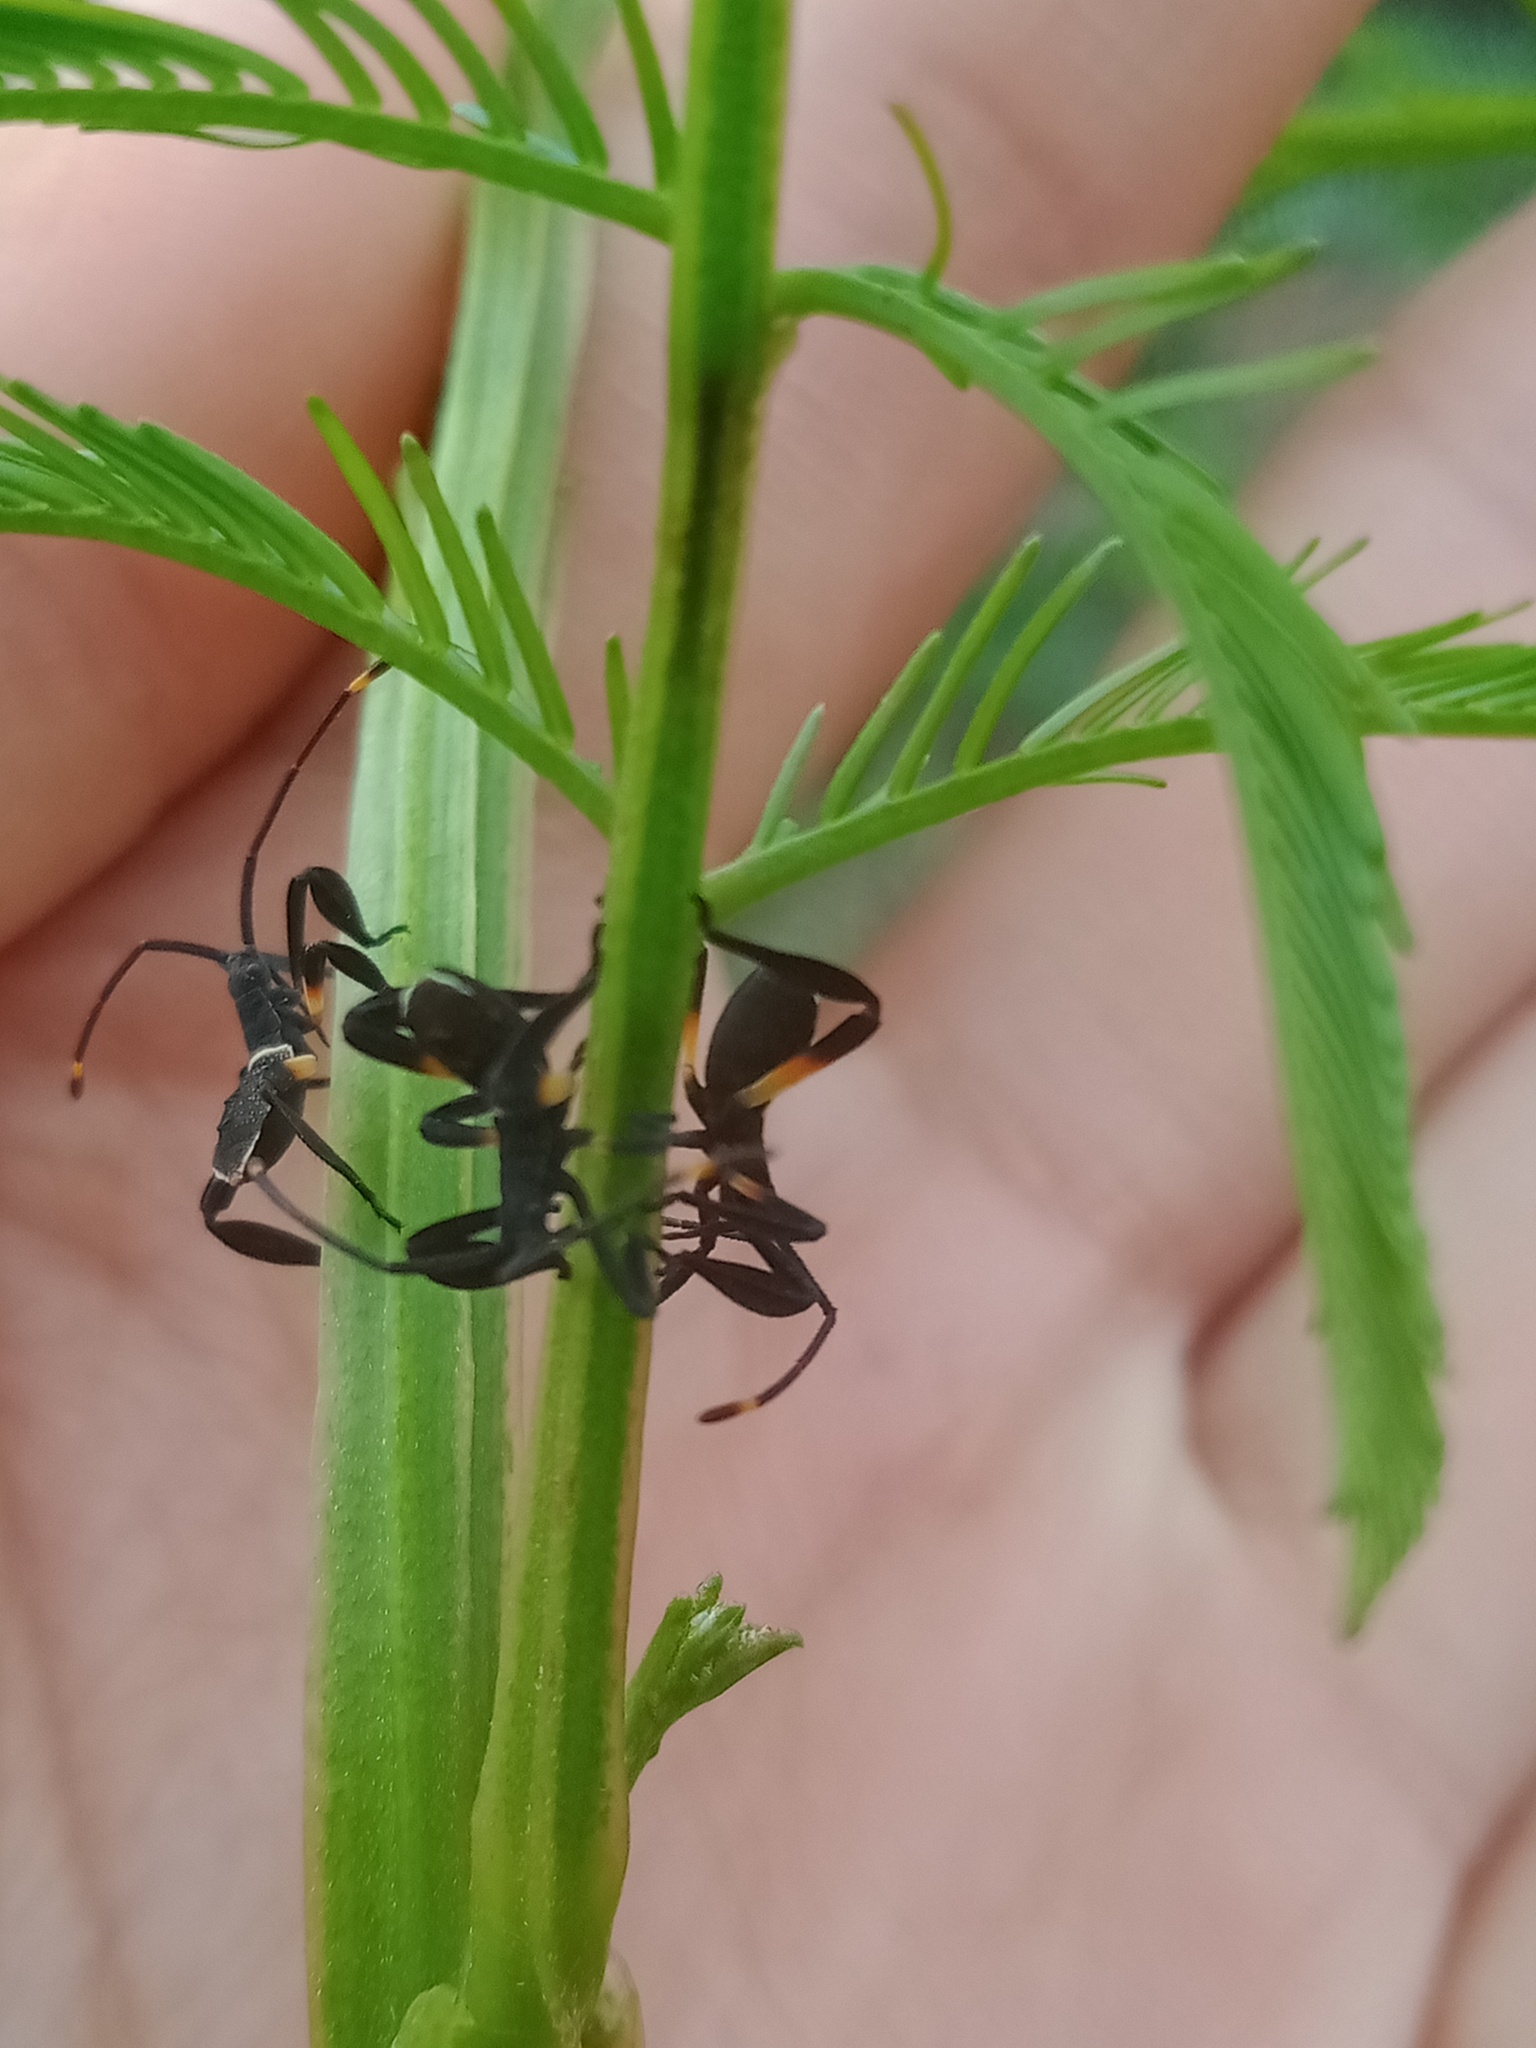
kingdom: Animalia
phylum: Arthropoda
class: Insecta
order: Hemiptera
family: Coreidae
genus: Mictis
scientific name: Mictis profana
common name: Crusader bug
